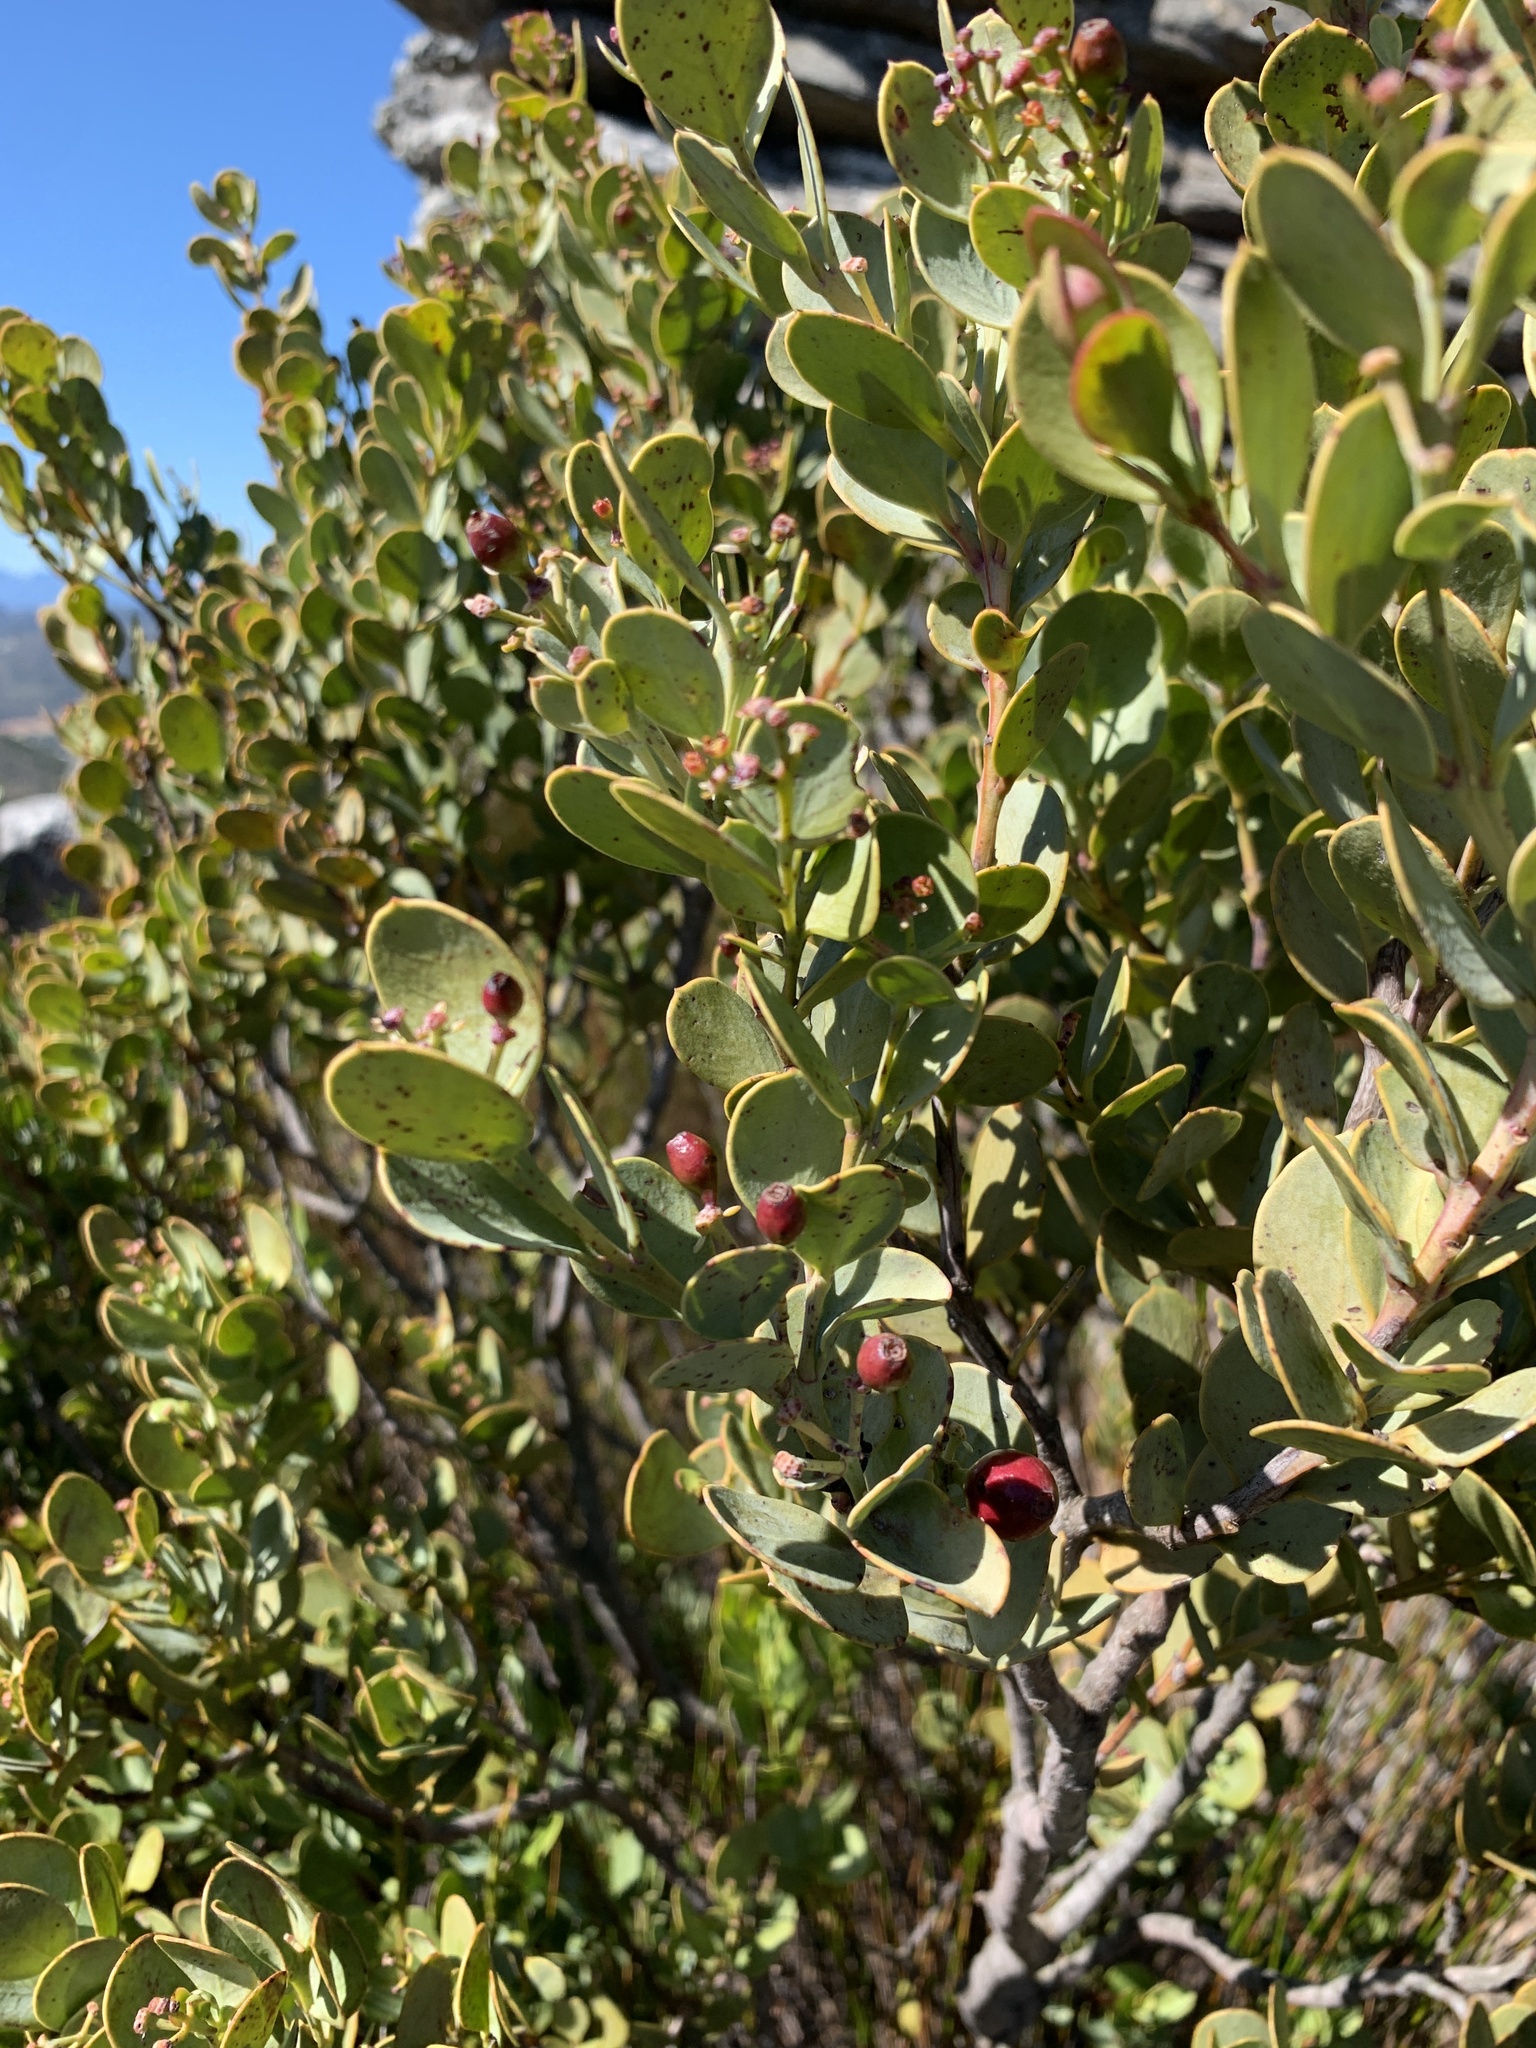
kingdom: Plantae
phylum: Tracheophyta
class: Magnoliopsida
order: Santalales
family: Santalaceae
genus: Osyris
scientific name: Osyris compressa
